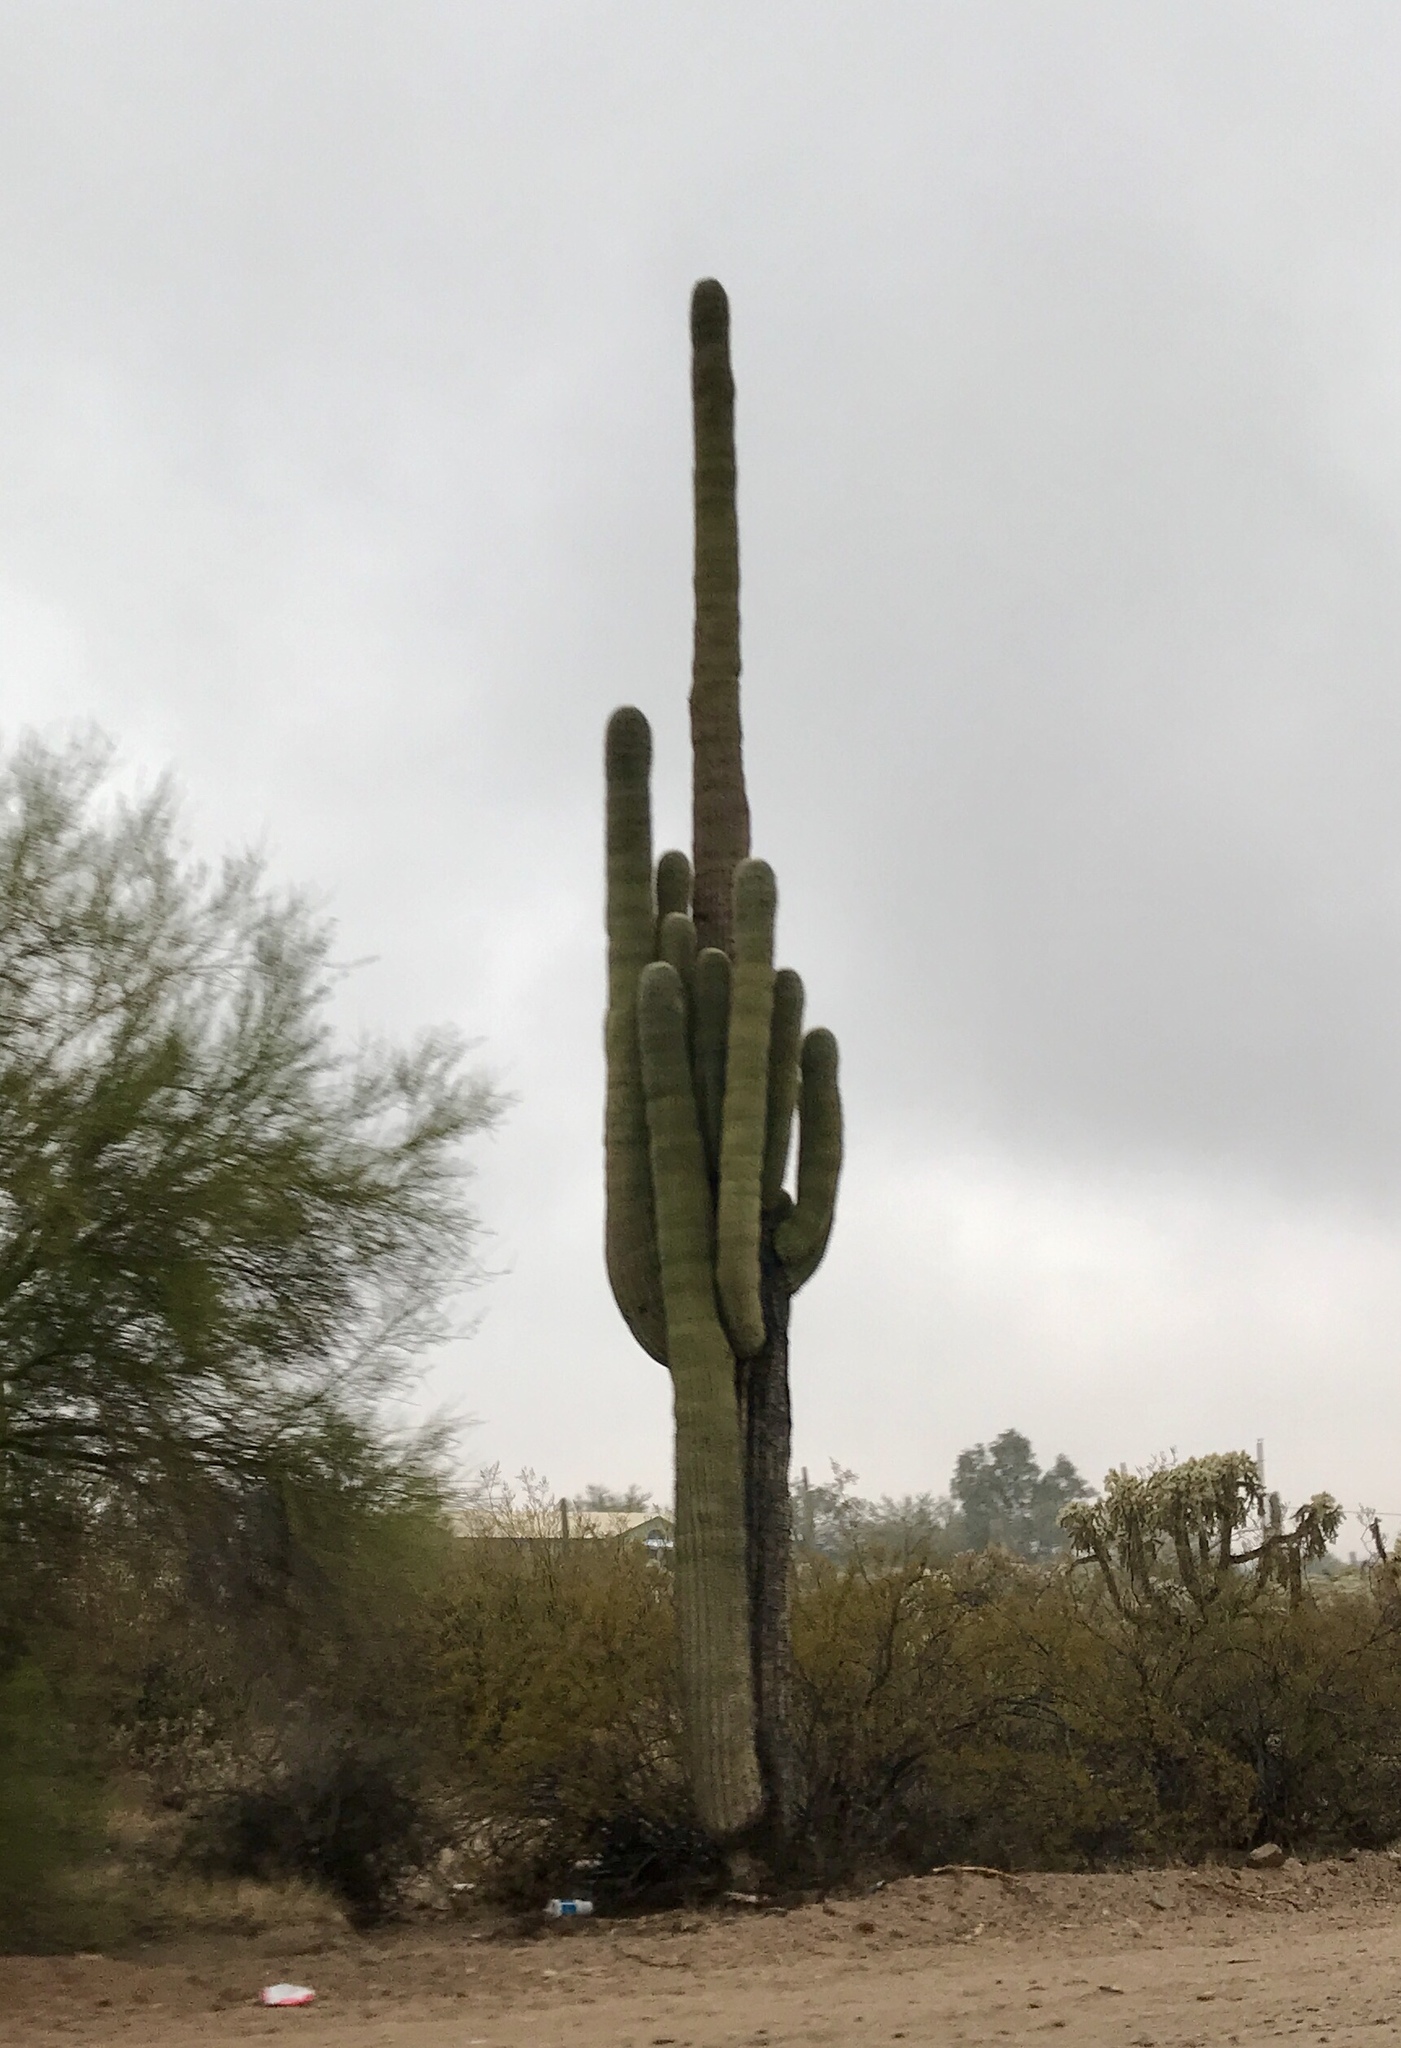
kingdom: Plantae
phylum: Tracheophyta
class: Magnoliopsida
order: Caryophyllales
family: Cactaceae
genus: Carnegiea
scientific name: Carnegiea gigantea
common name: Saguaro
